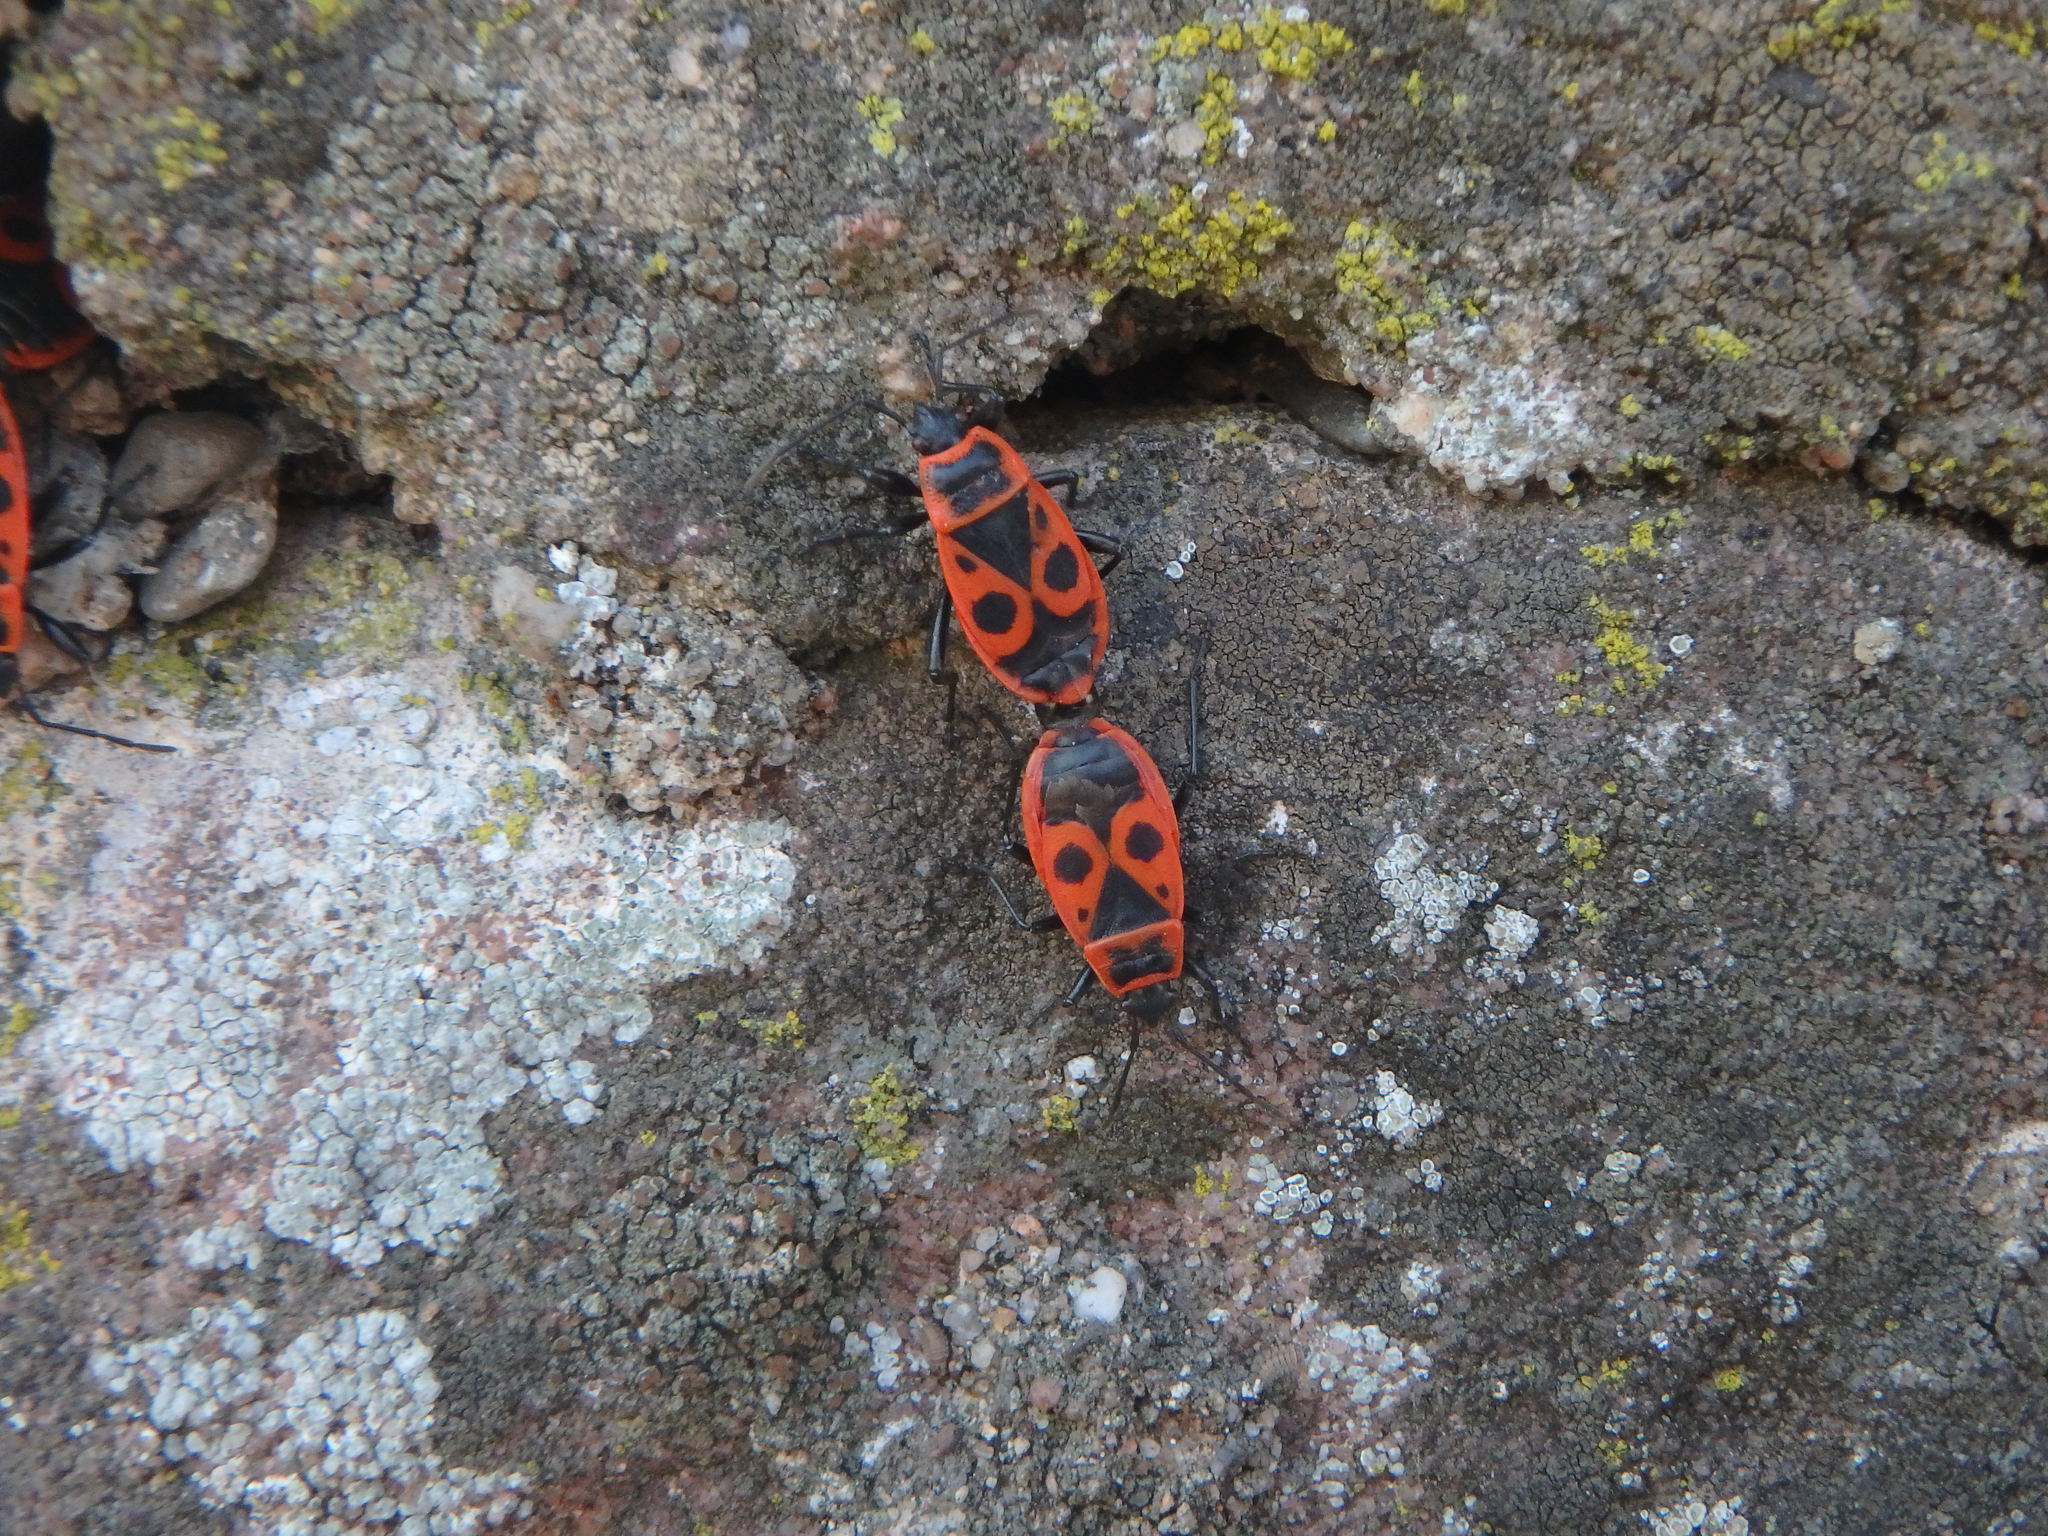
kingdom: Animalia
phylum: Arthropoda
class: Insecta
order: Hemiptera
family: Pyrrhocoridae
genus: Pyrrhocoris
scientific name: Pyrrhocoris apterus
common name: Firebug
